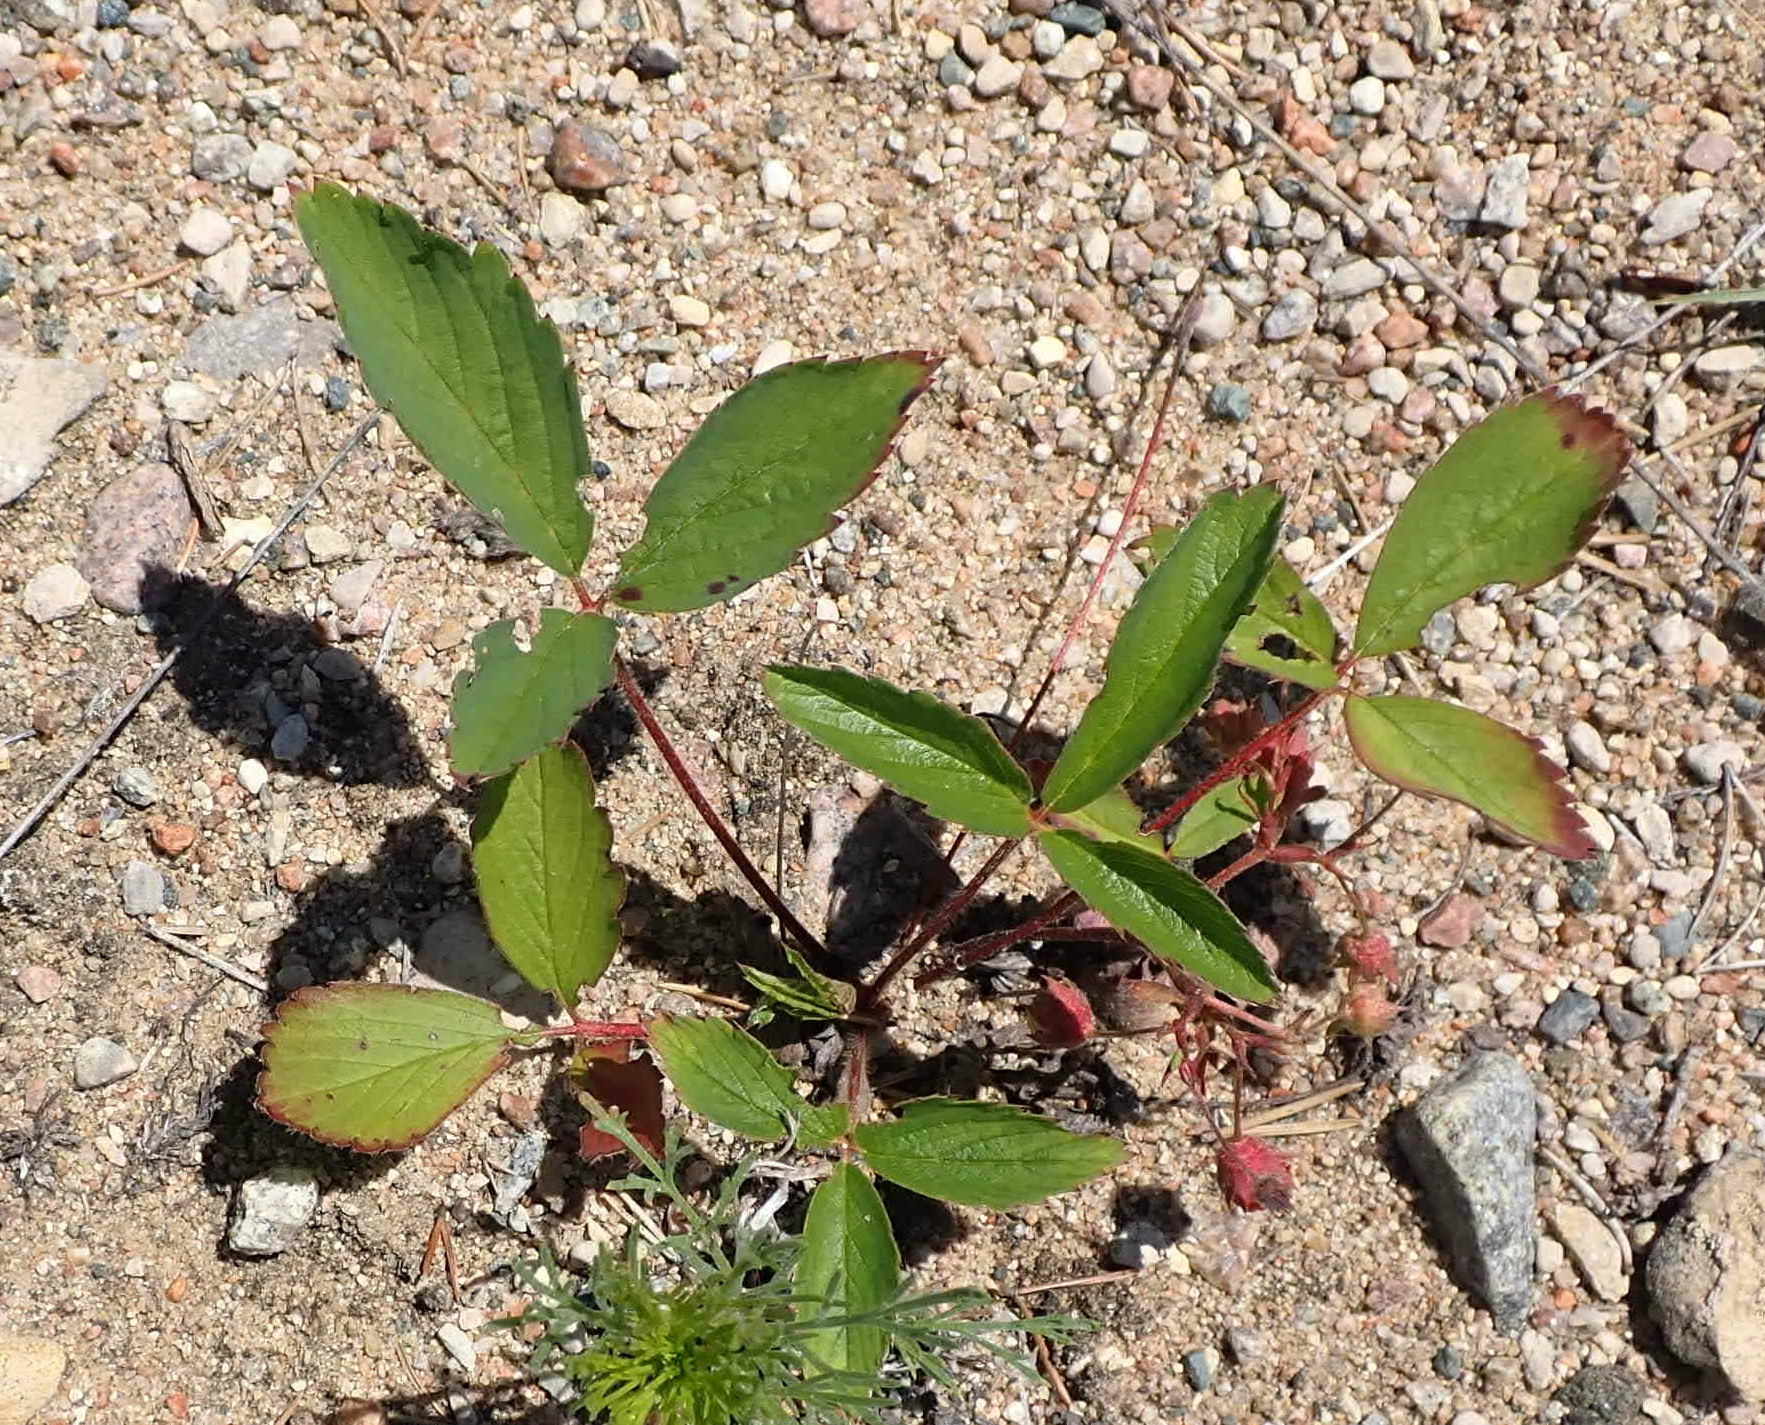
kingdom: Plantae
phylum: Tracheophyta
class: Magnoliopsida
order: Rosales
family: Rosaceae
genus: Fragaria
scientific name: Fragaria virginiana
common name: Thickleaved wild strawberry
